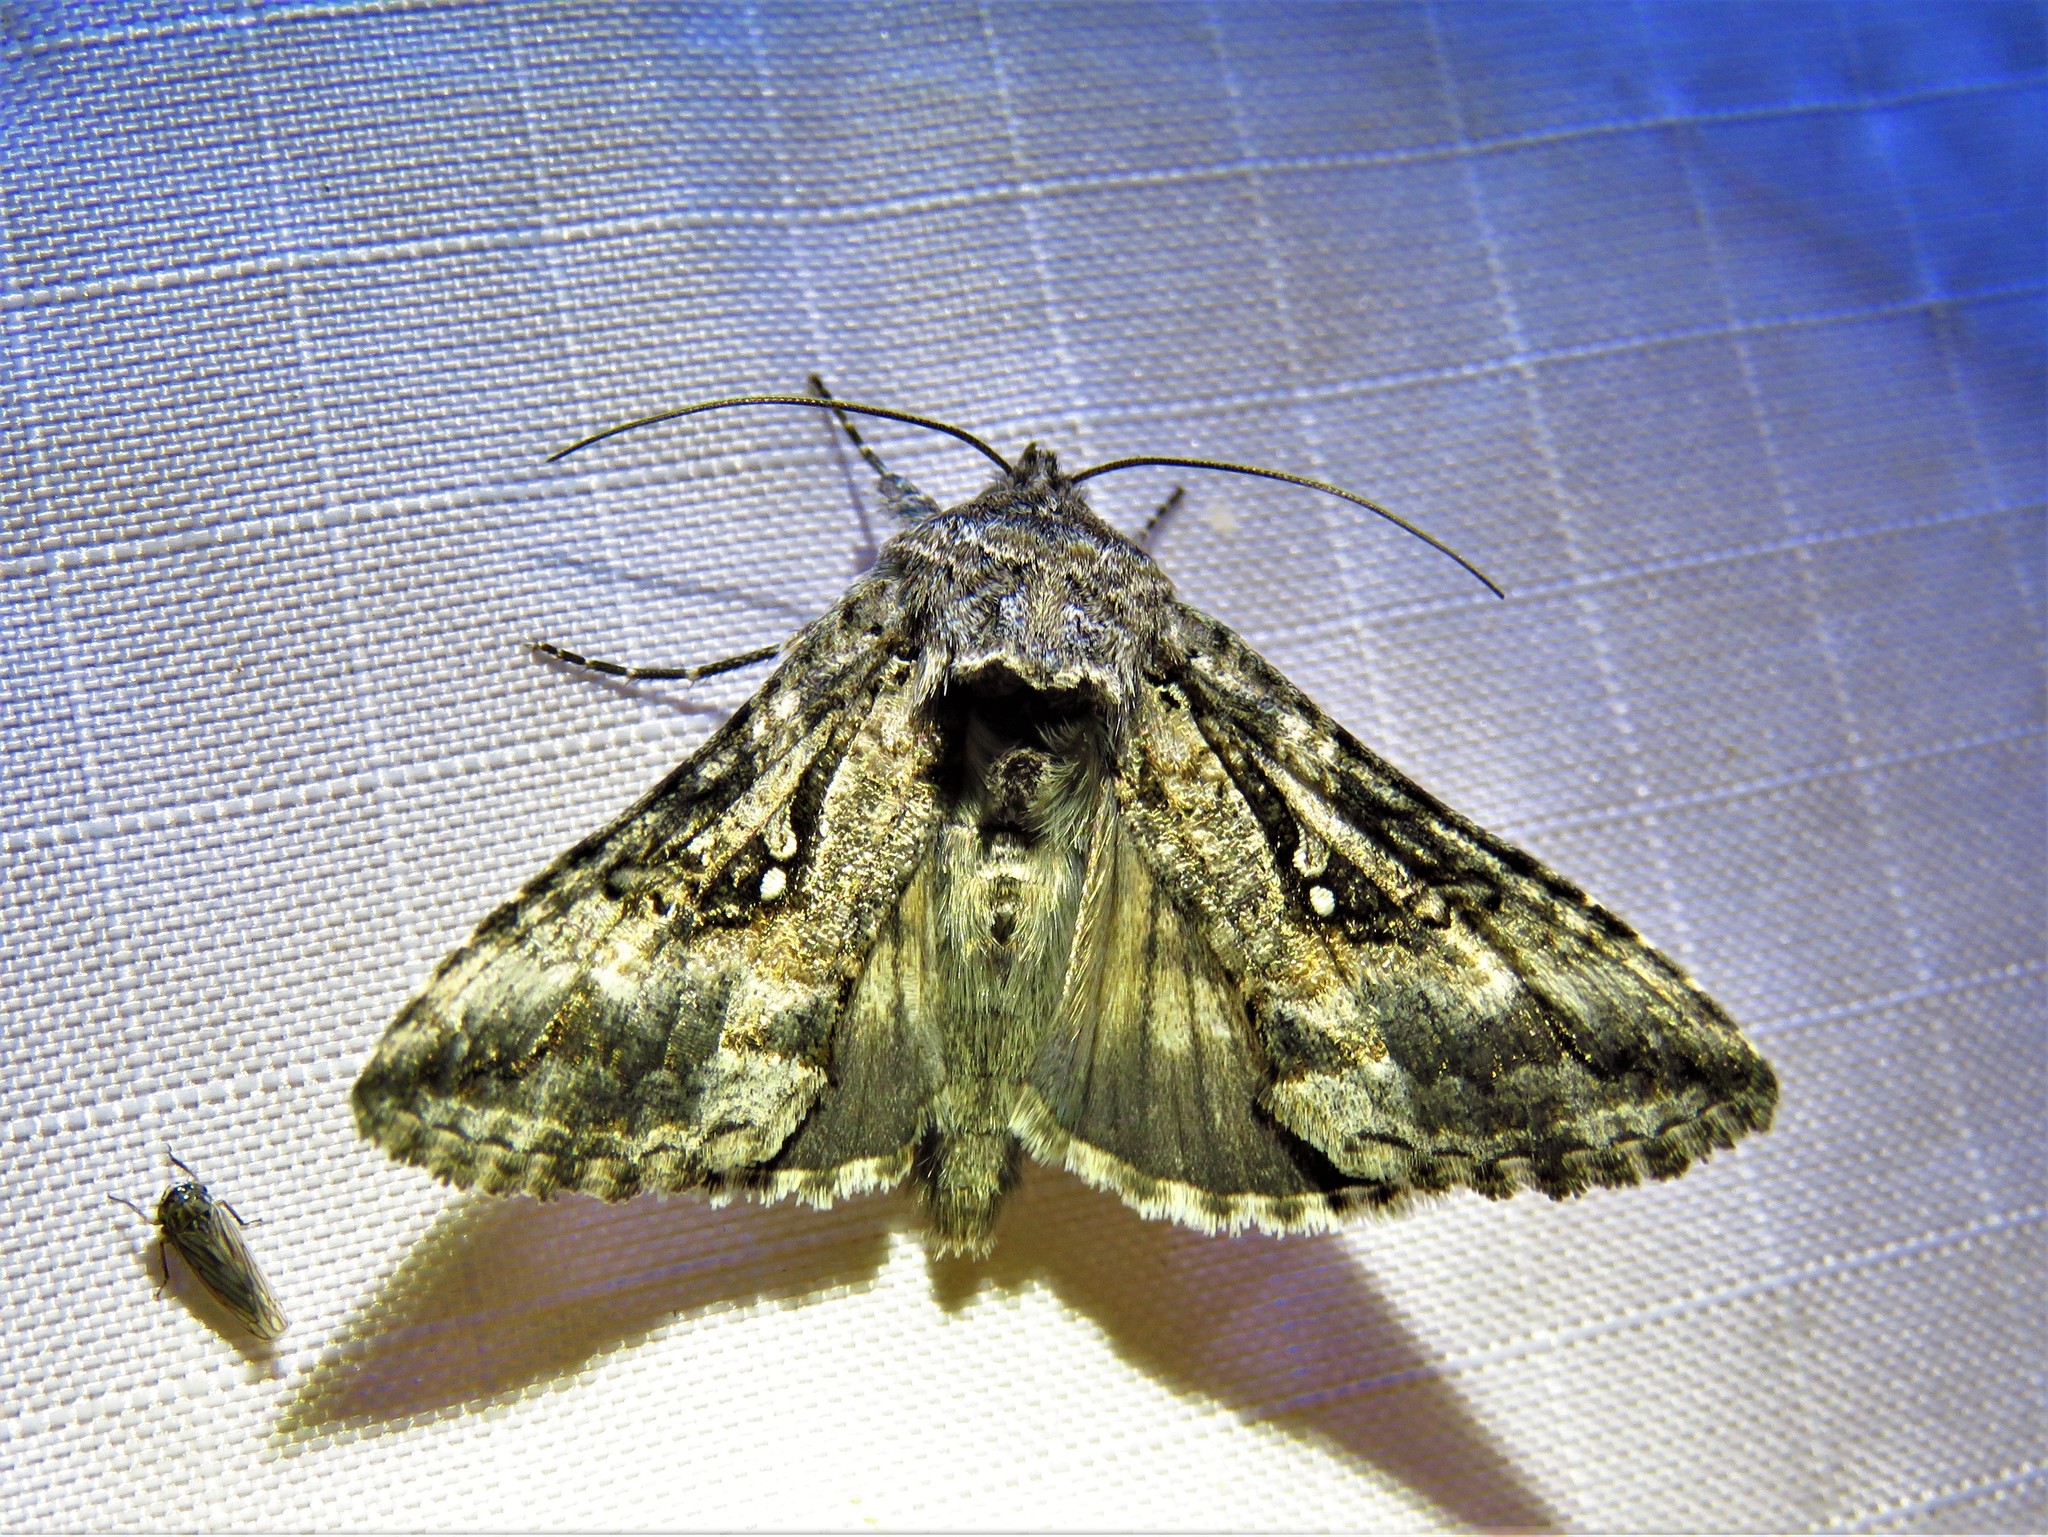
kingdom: Animalia
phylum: Arthropoda
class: Insecta
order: Lepidoptera
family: Noctuidae
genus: Rachiplusia
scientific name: Rachiplusia ou
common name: Gray looper moth
